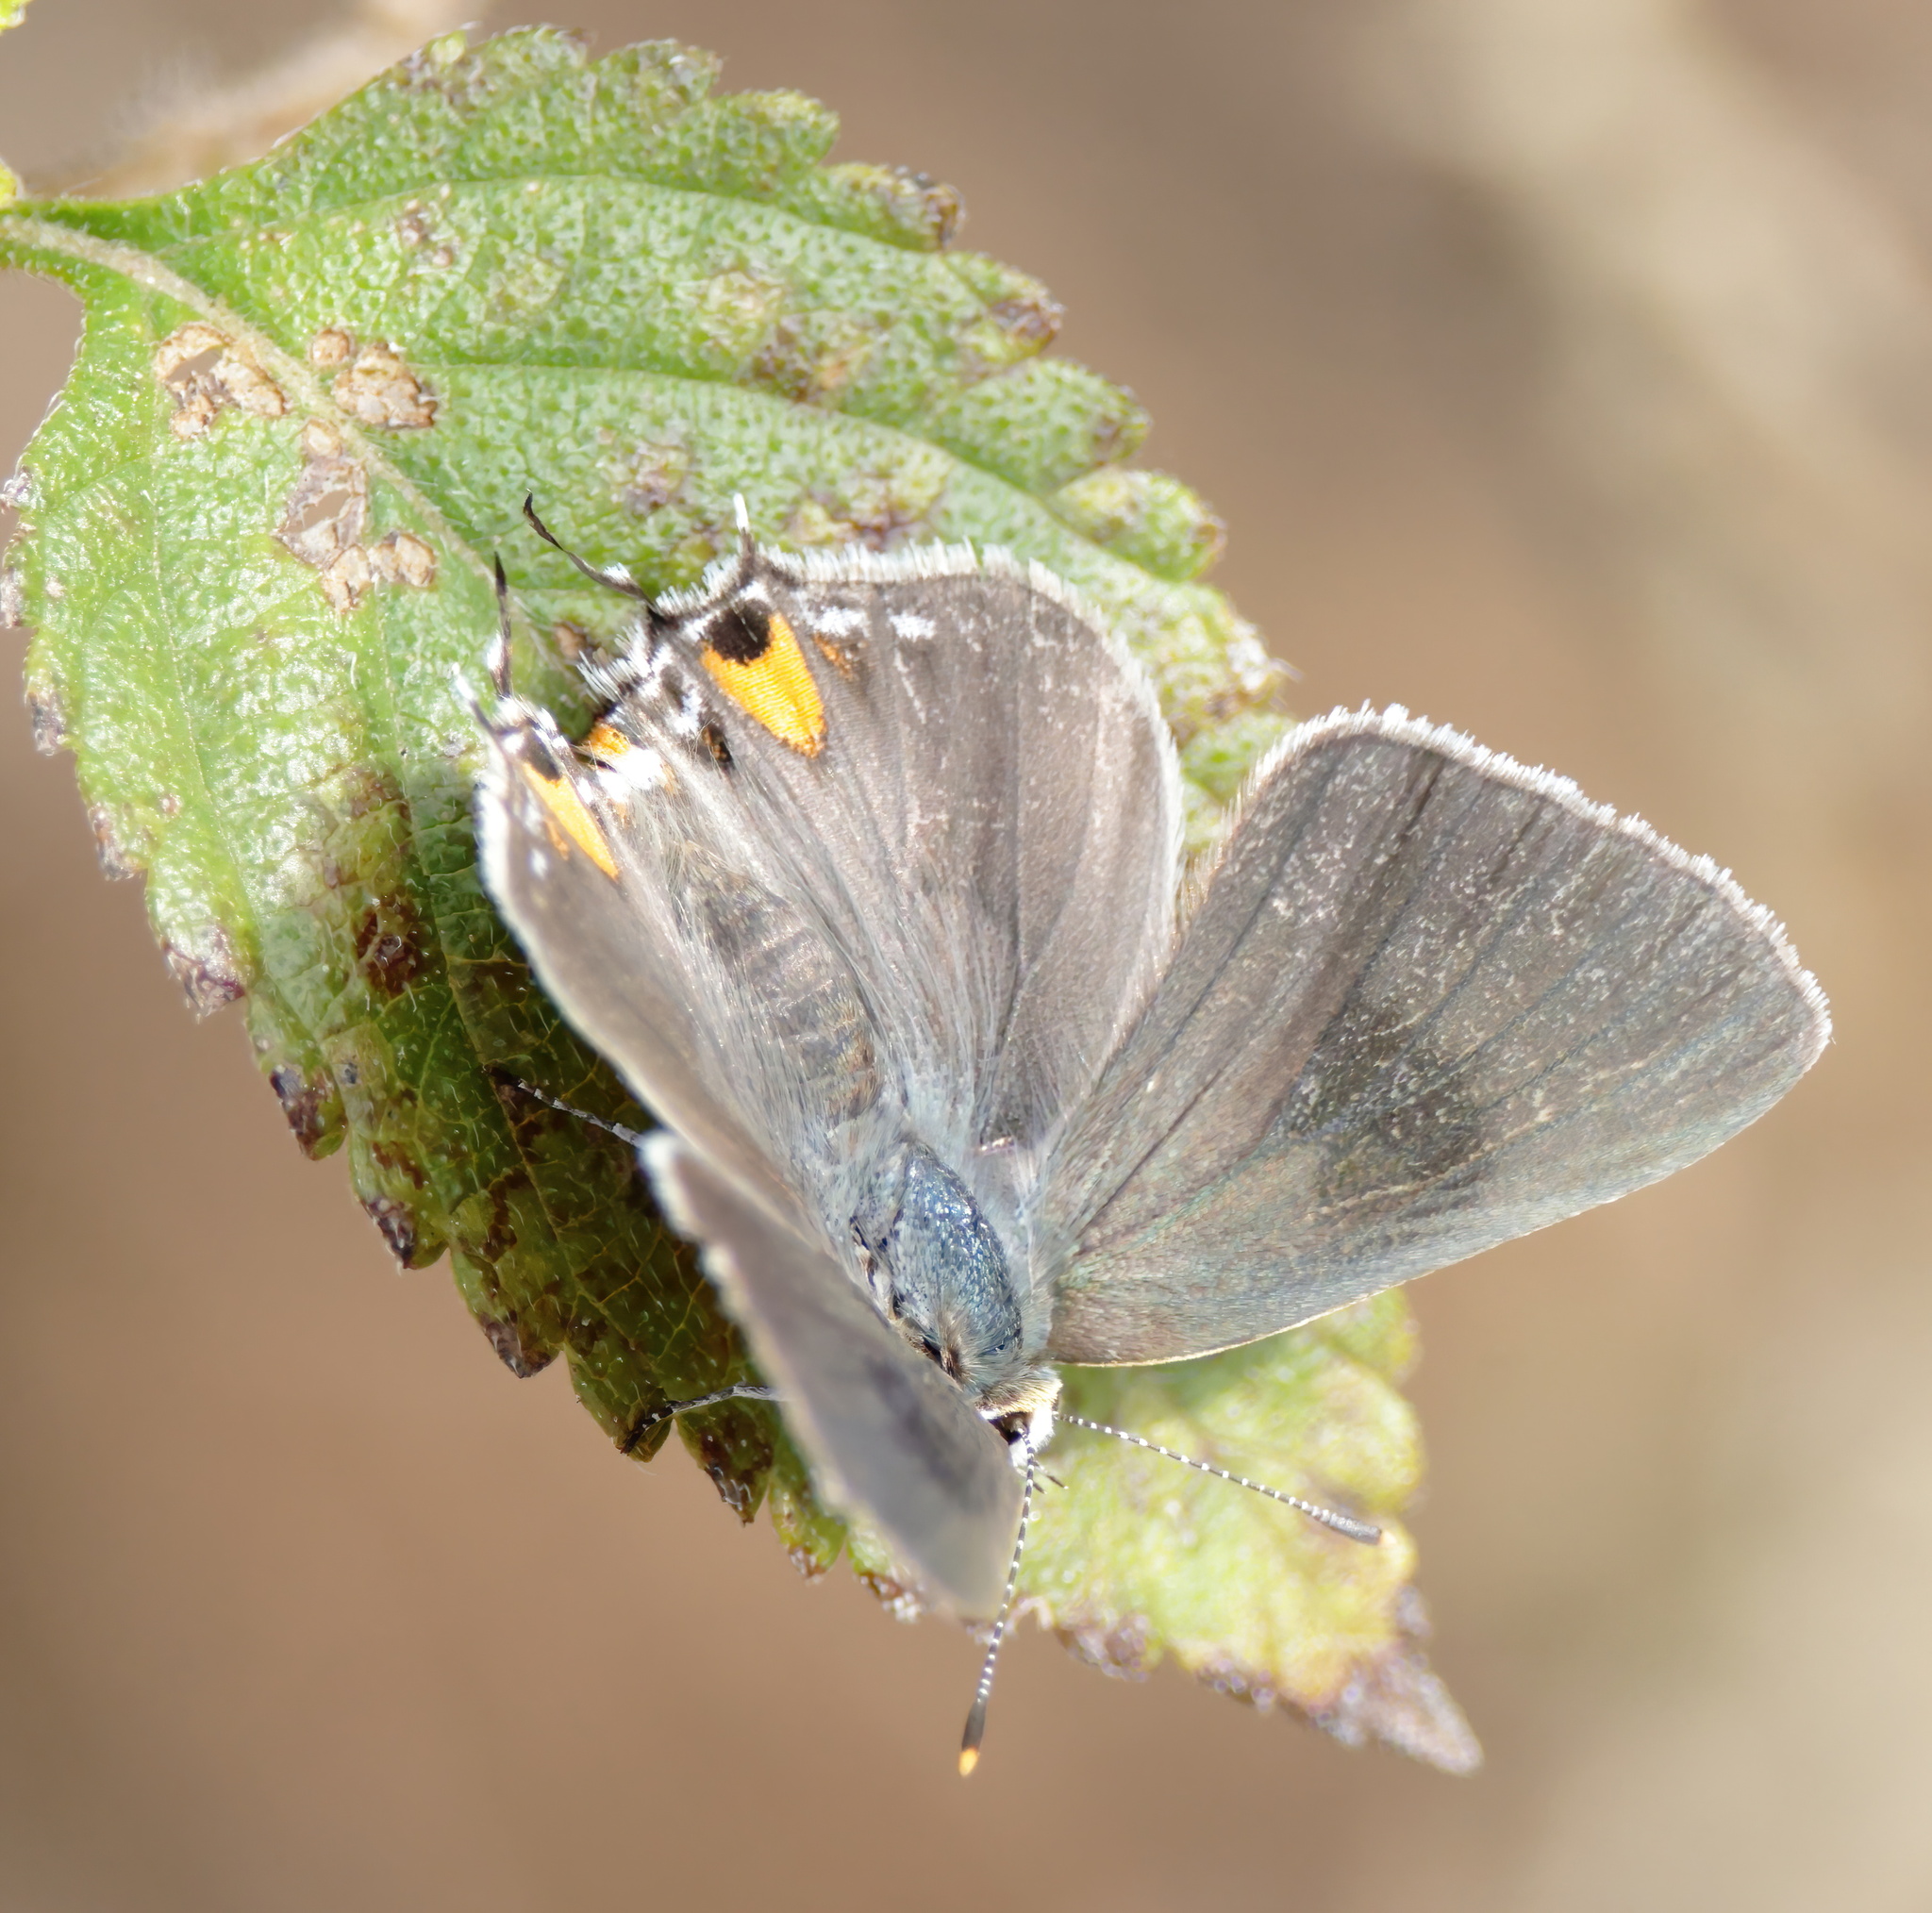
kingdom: Animalia
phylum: Arthropoda
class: Insecta
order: Lepidoptera
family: Lycaenidae
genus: Strymon
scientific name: Strymon melinus
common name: Gray hairstreak
